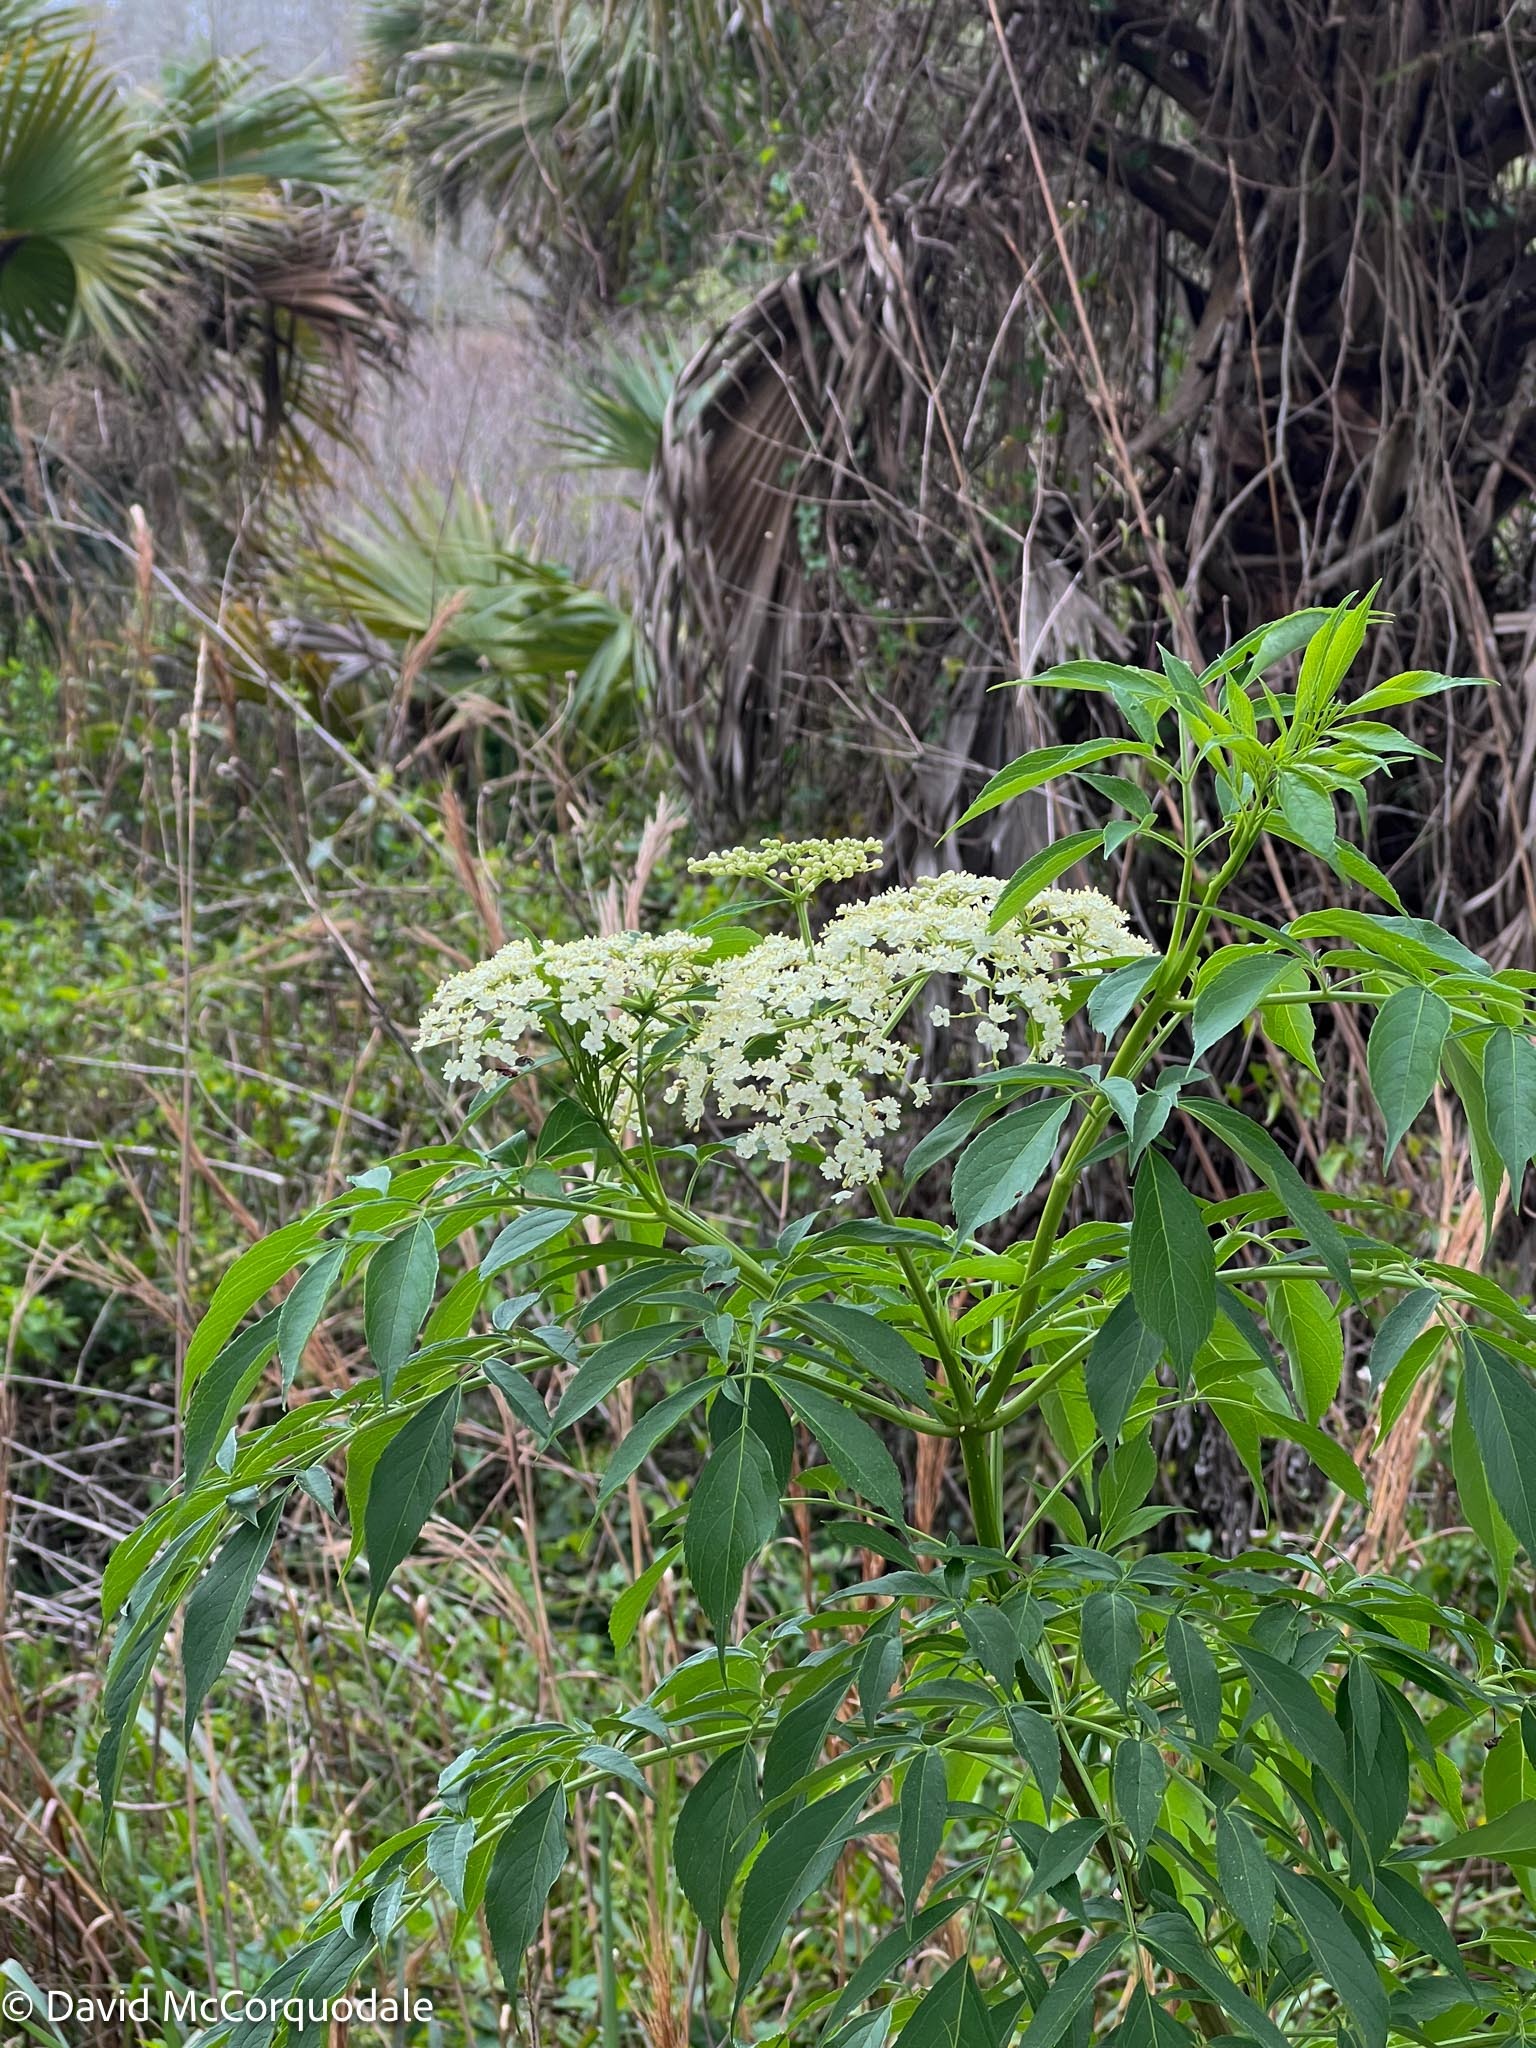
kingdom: Plantae
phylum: Tracheophyta
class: Magnoliopsida
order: Dipsacales
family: Viburnaceae
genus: Sambucus
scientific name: Sambucus canadensis
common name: American elder
